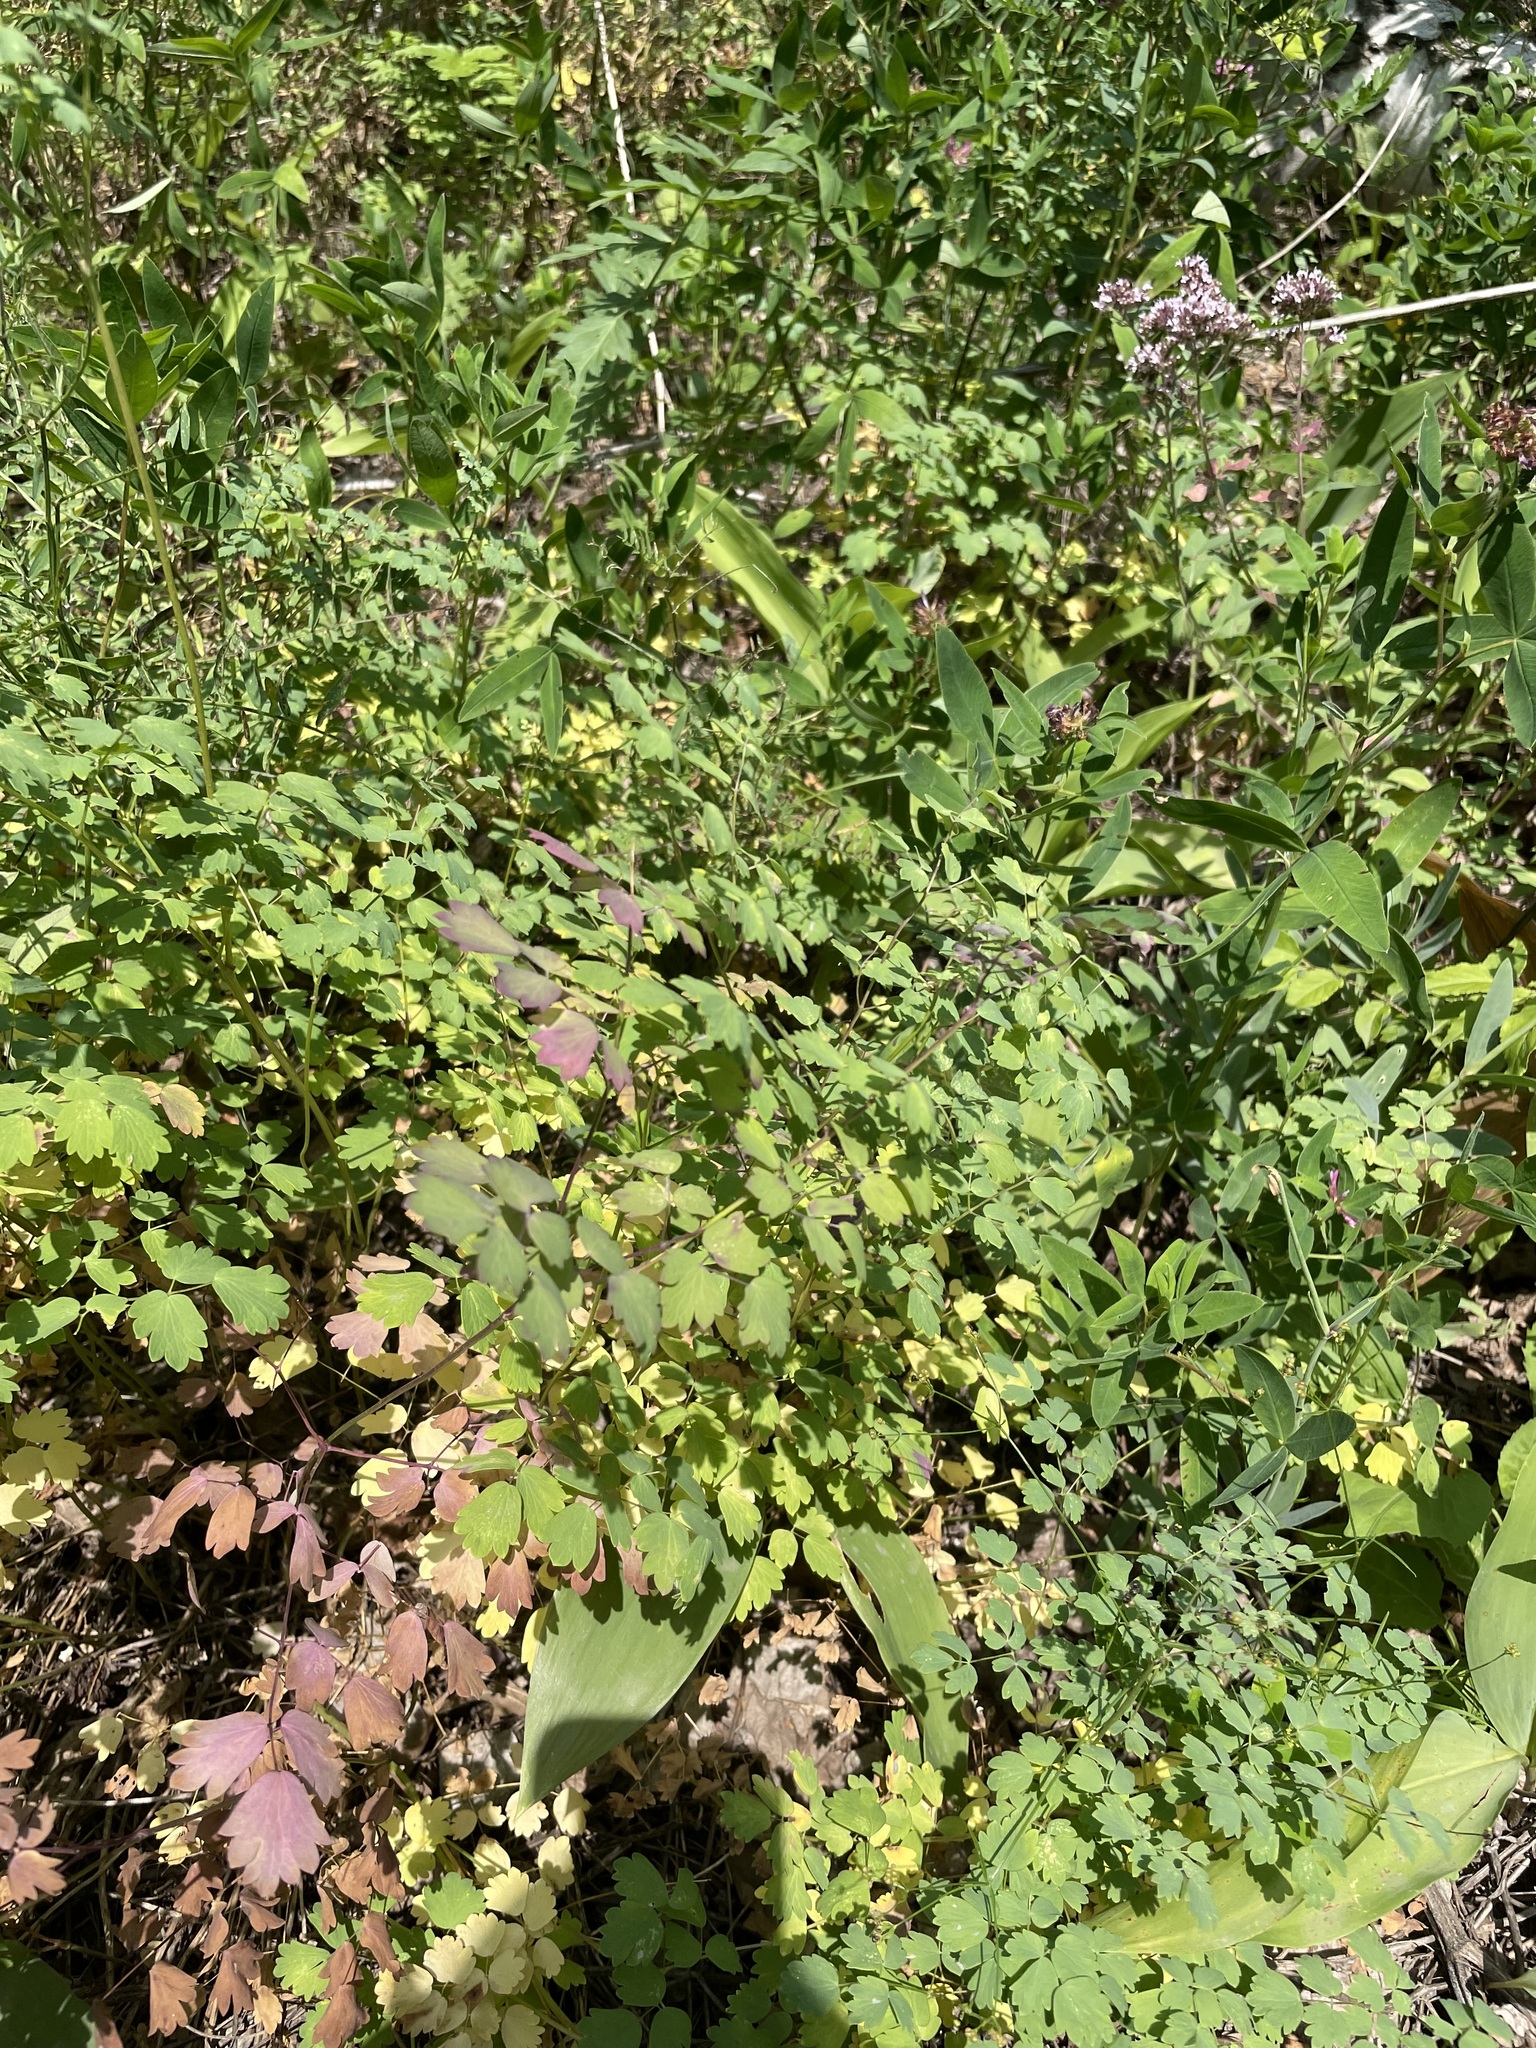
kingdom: Plantae
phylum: Tracheophyta
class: Magnoliopsida
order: Ranunculales
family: Ranunculaceae
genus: Thalictrum
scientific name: Thalictrum minus
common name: Lesser meadow-rue
